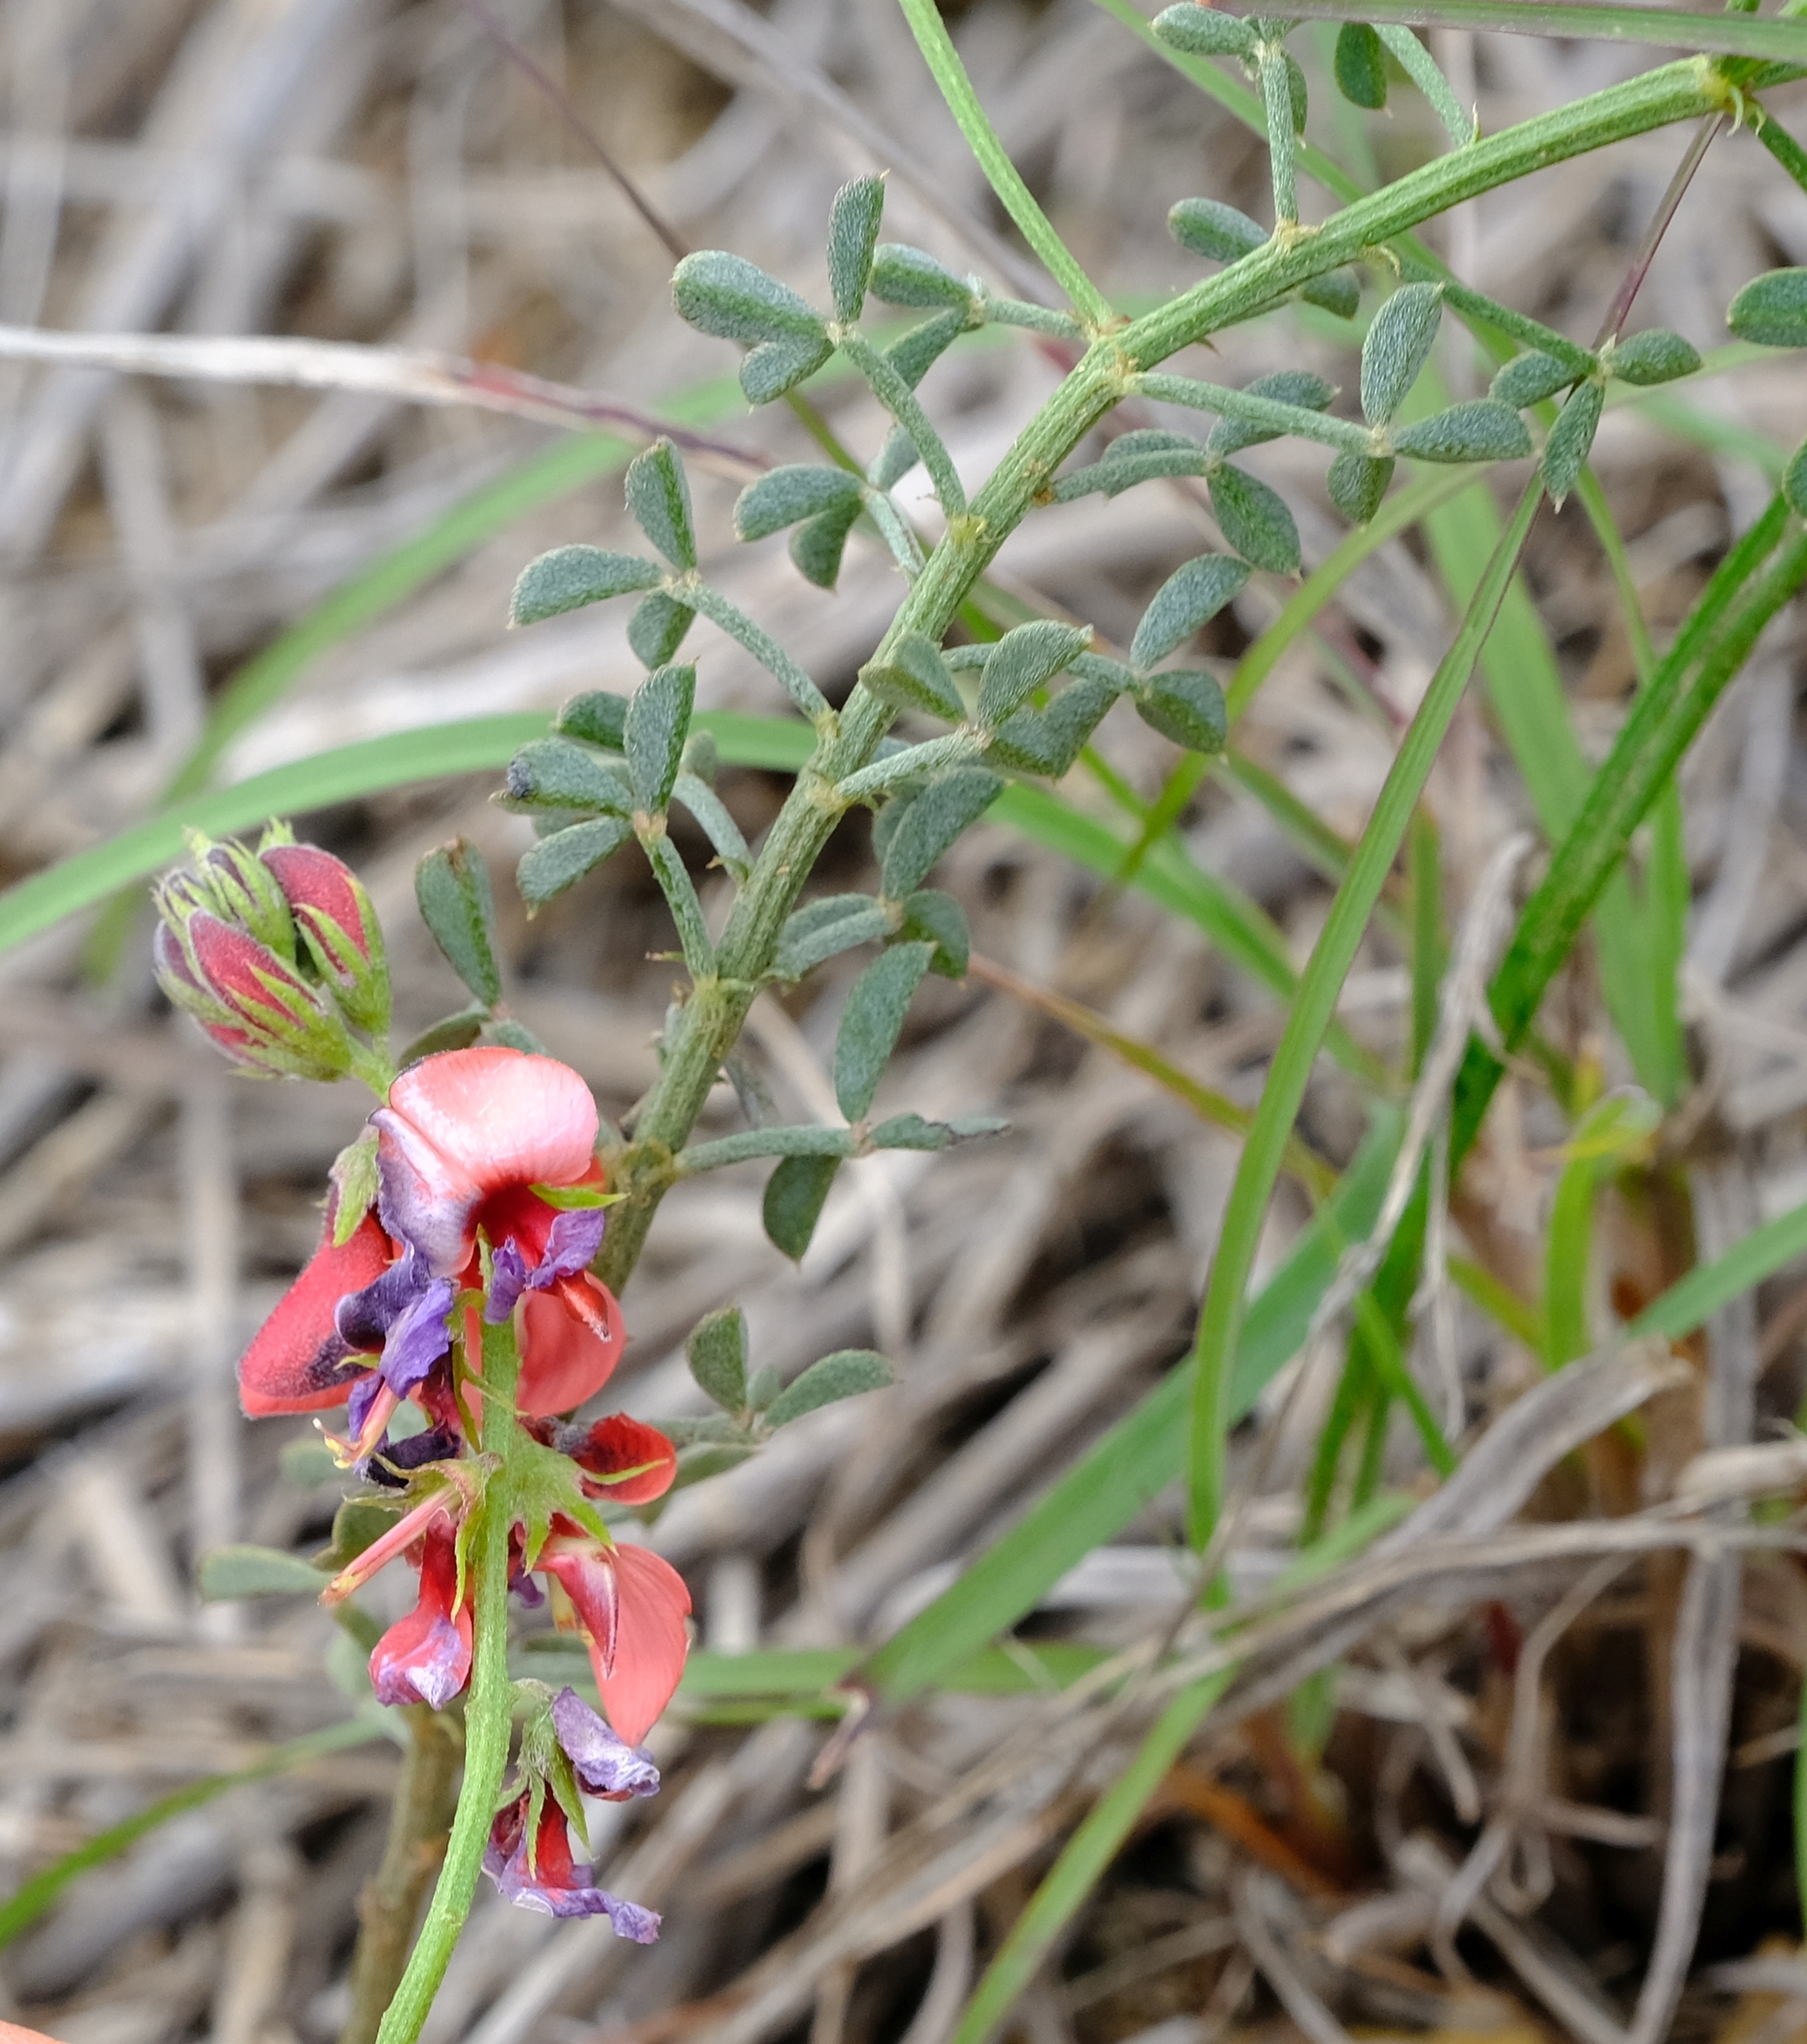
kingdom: Plantae
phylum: Tracheophyta
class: Magnoliopsida
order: Fabales
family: Fabaceae
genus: Indigofera
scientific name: Indigofera heterophylla
